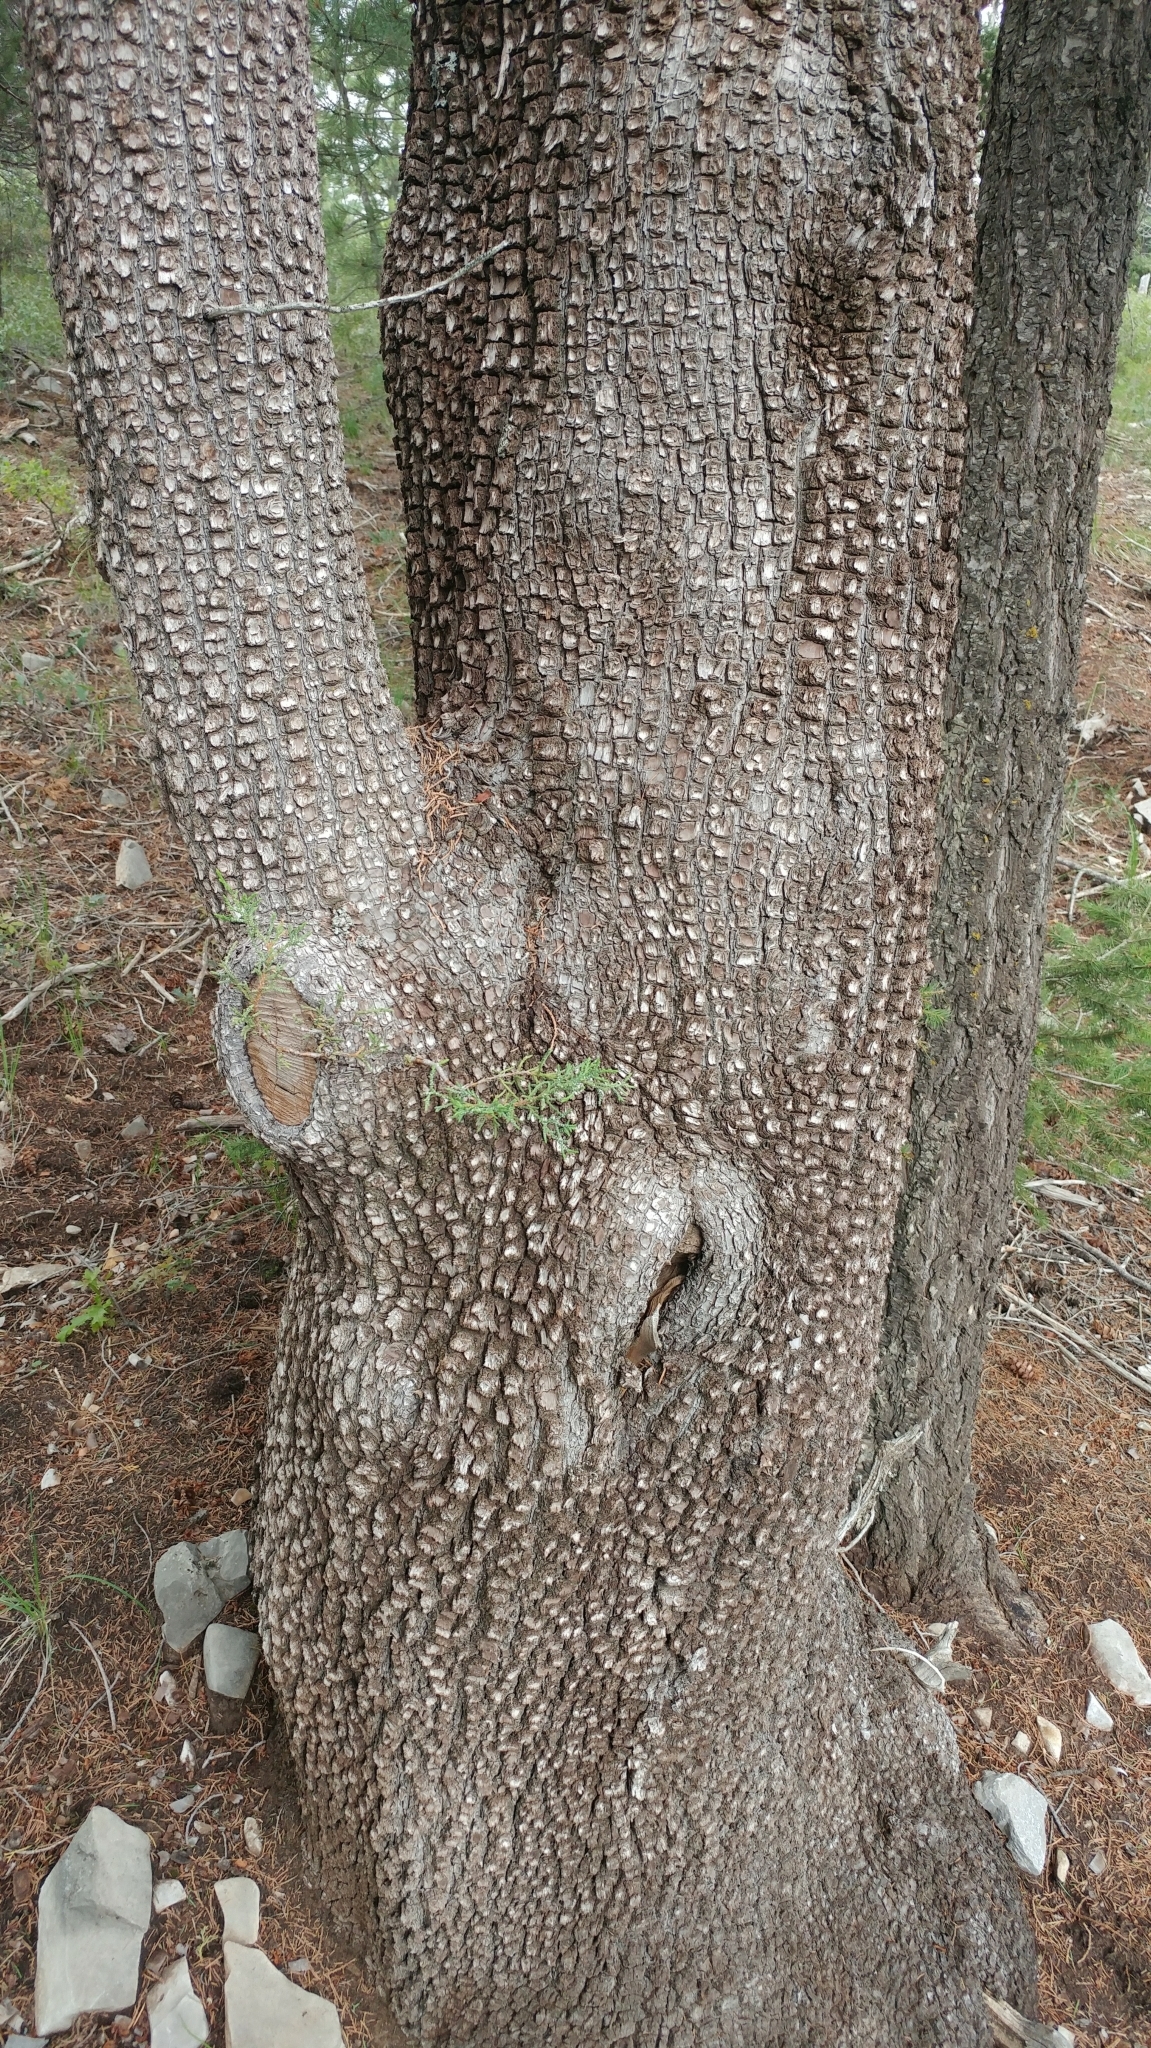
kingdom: Plantae
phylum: Tracheophyta
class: Pinopsida
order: Pinales
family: Cupressaceae
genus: Juniperus
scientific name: Juniperus deppeana
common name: Alligator juniper
